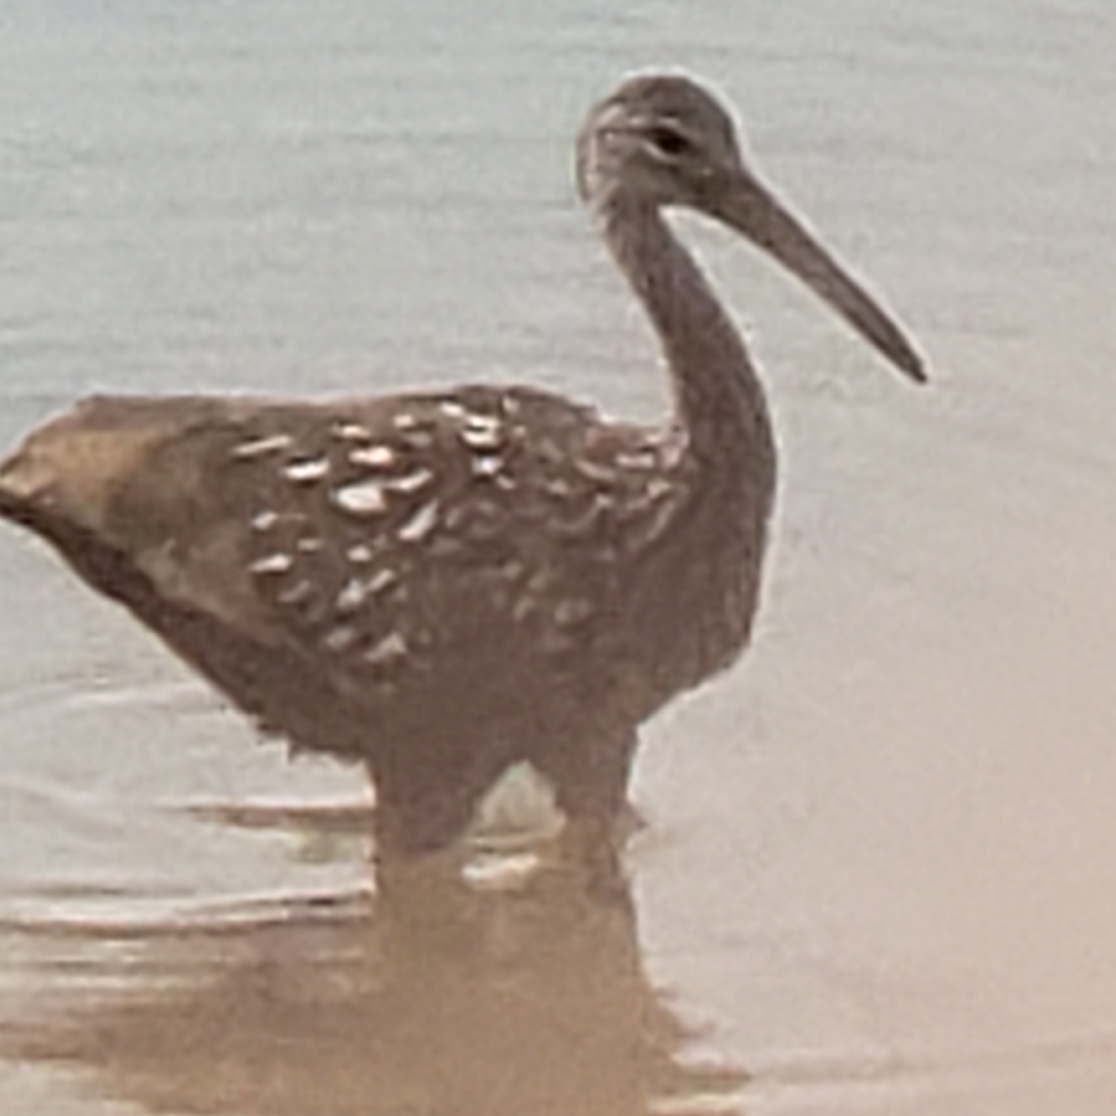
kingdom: Animalia
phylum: Chordata
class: Aves
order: Gruiformes
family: Aramidae
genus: Aramus
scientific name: Aramus guarauna
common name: Limpkin
